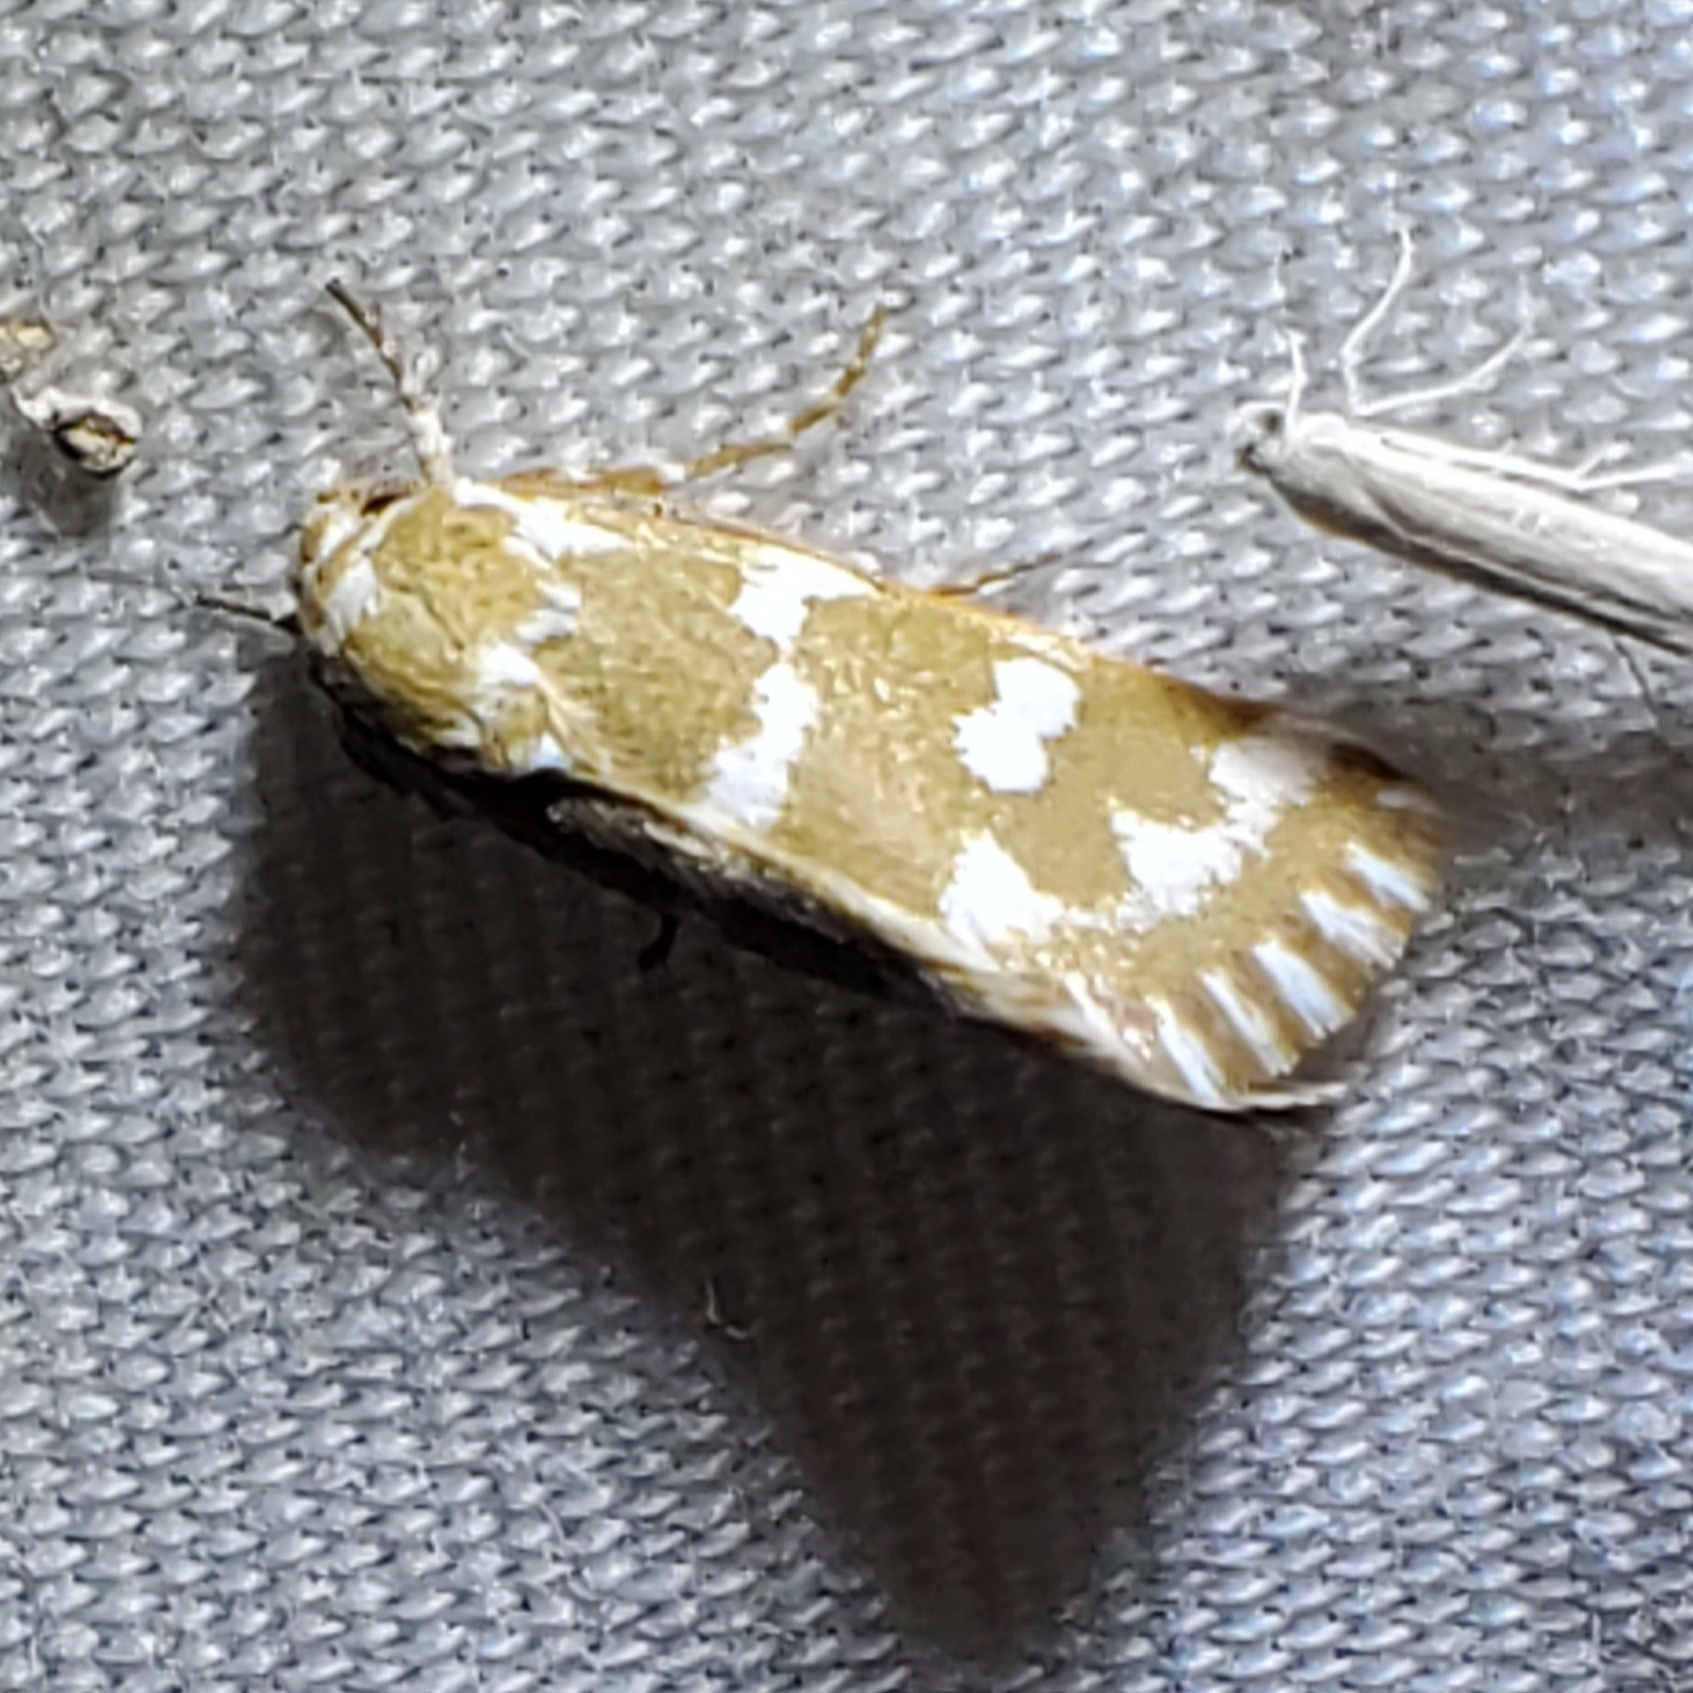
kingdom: Animalia
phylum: Arthropoda
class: Insecta
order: Lepidoptera
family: Noctuidae
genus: Neotarache
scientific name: Neotarache deserticola
